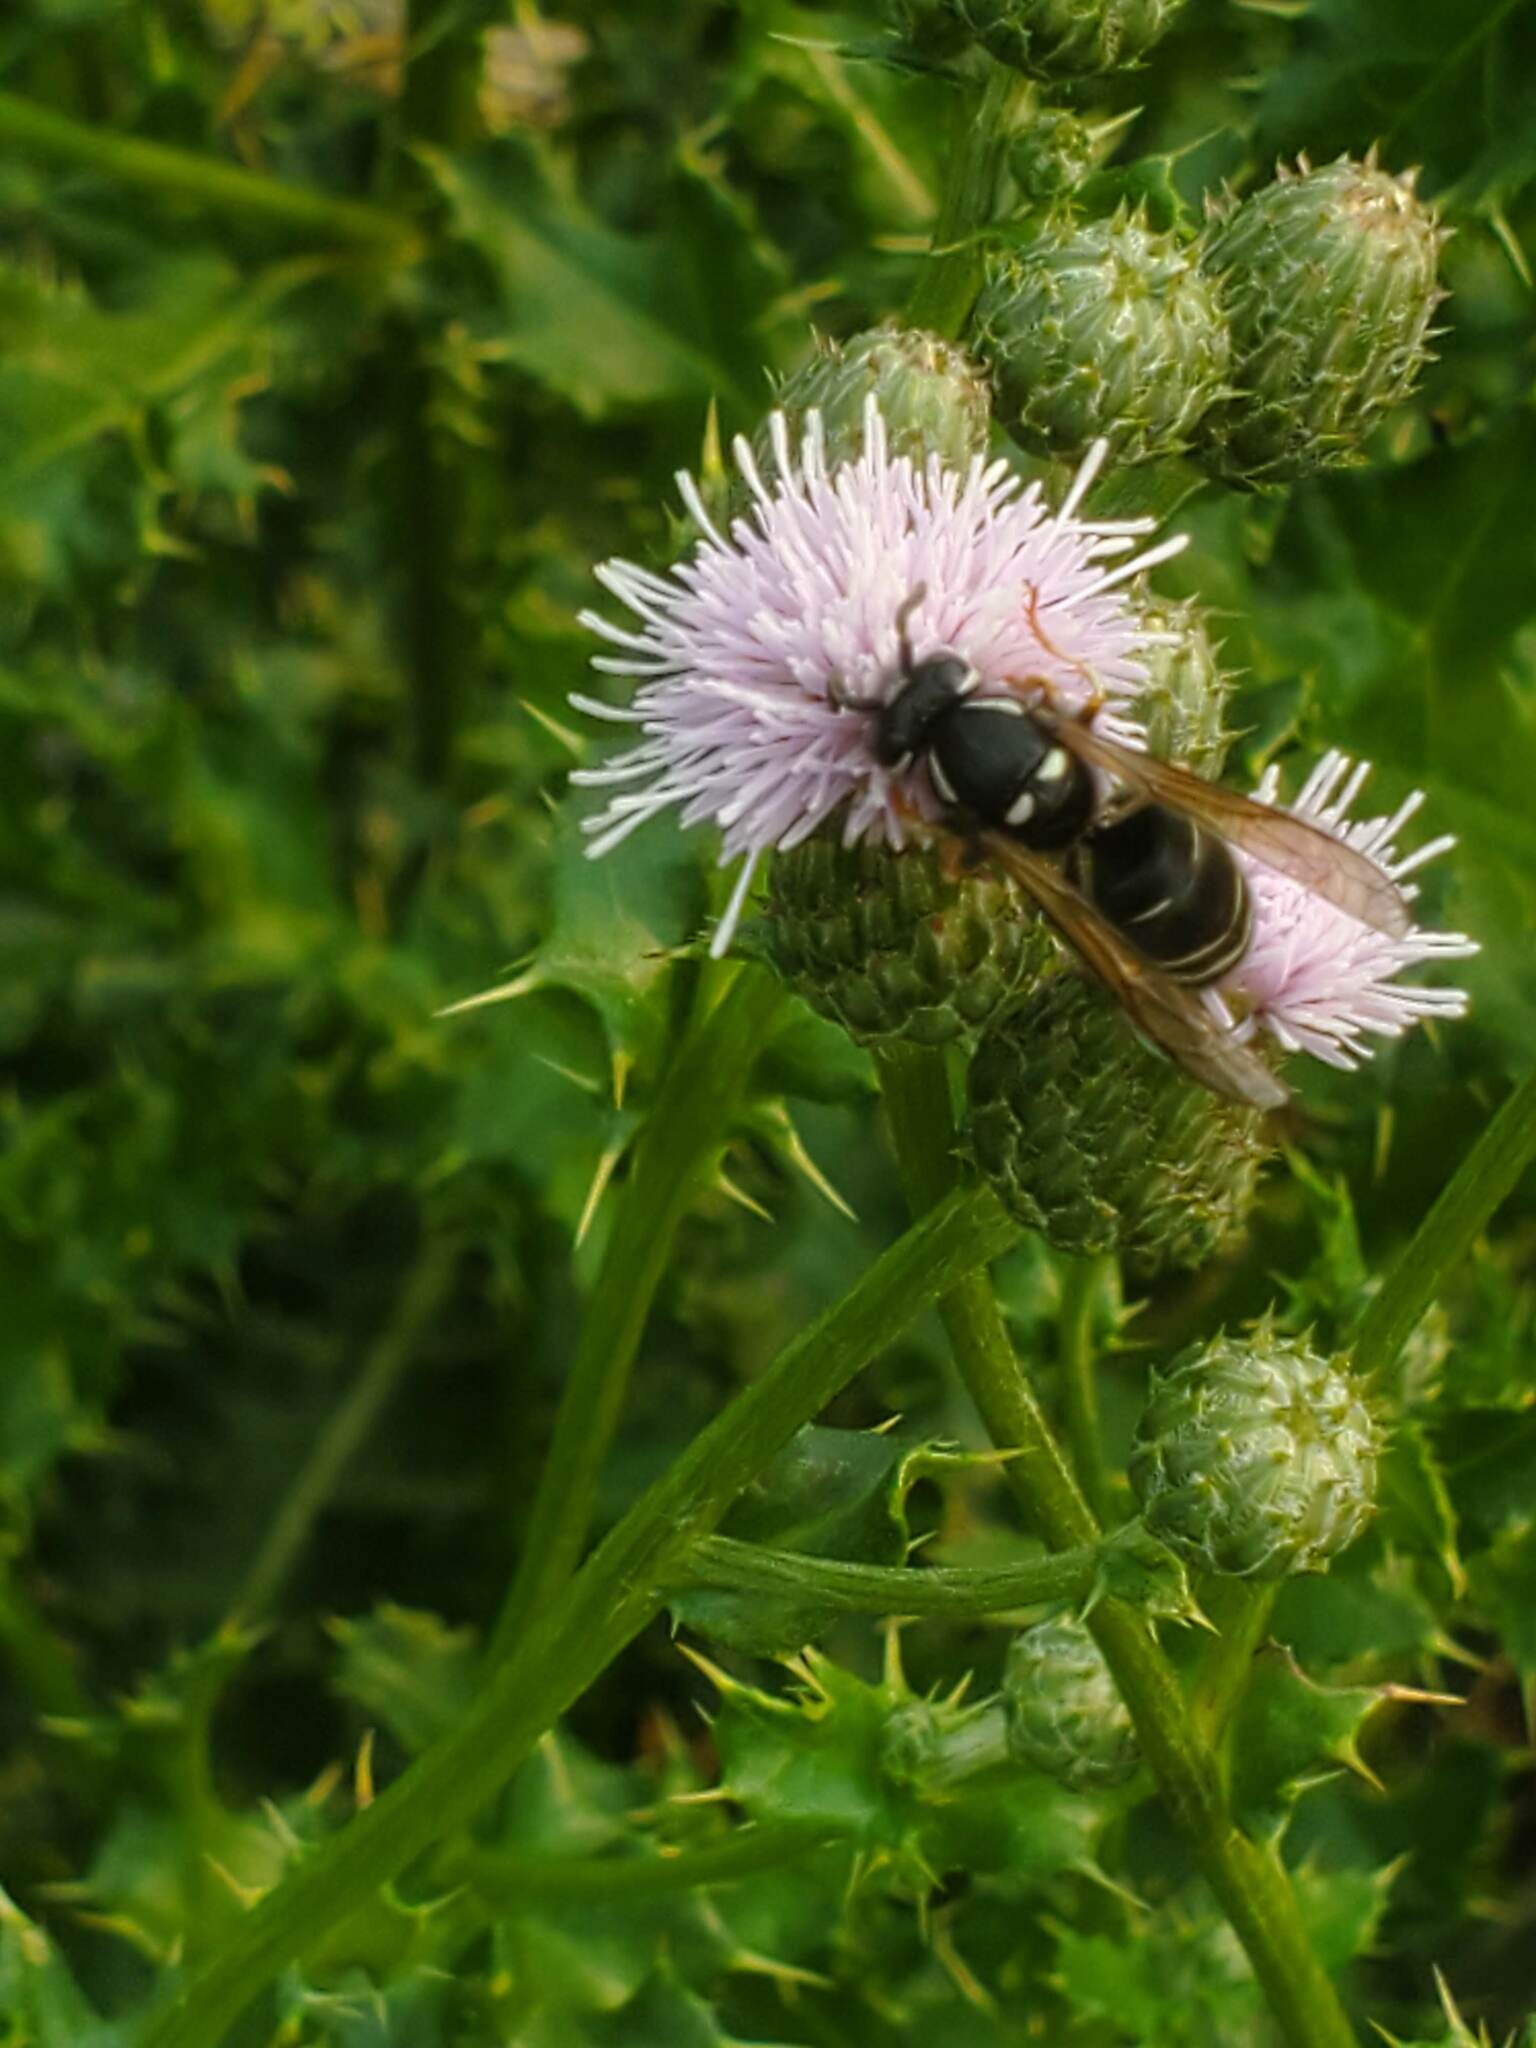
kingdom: Animalia
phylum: Arthropoda
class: Insecta
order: Hymenoptera
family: Vespidae
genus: Vespula
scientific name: Vespula consobrina
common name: Blackjacket
